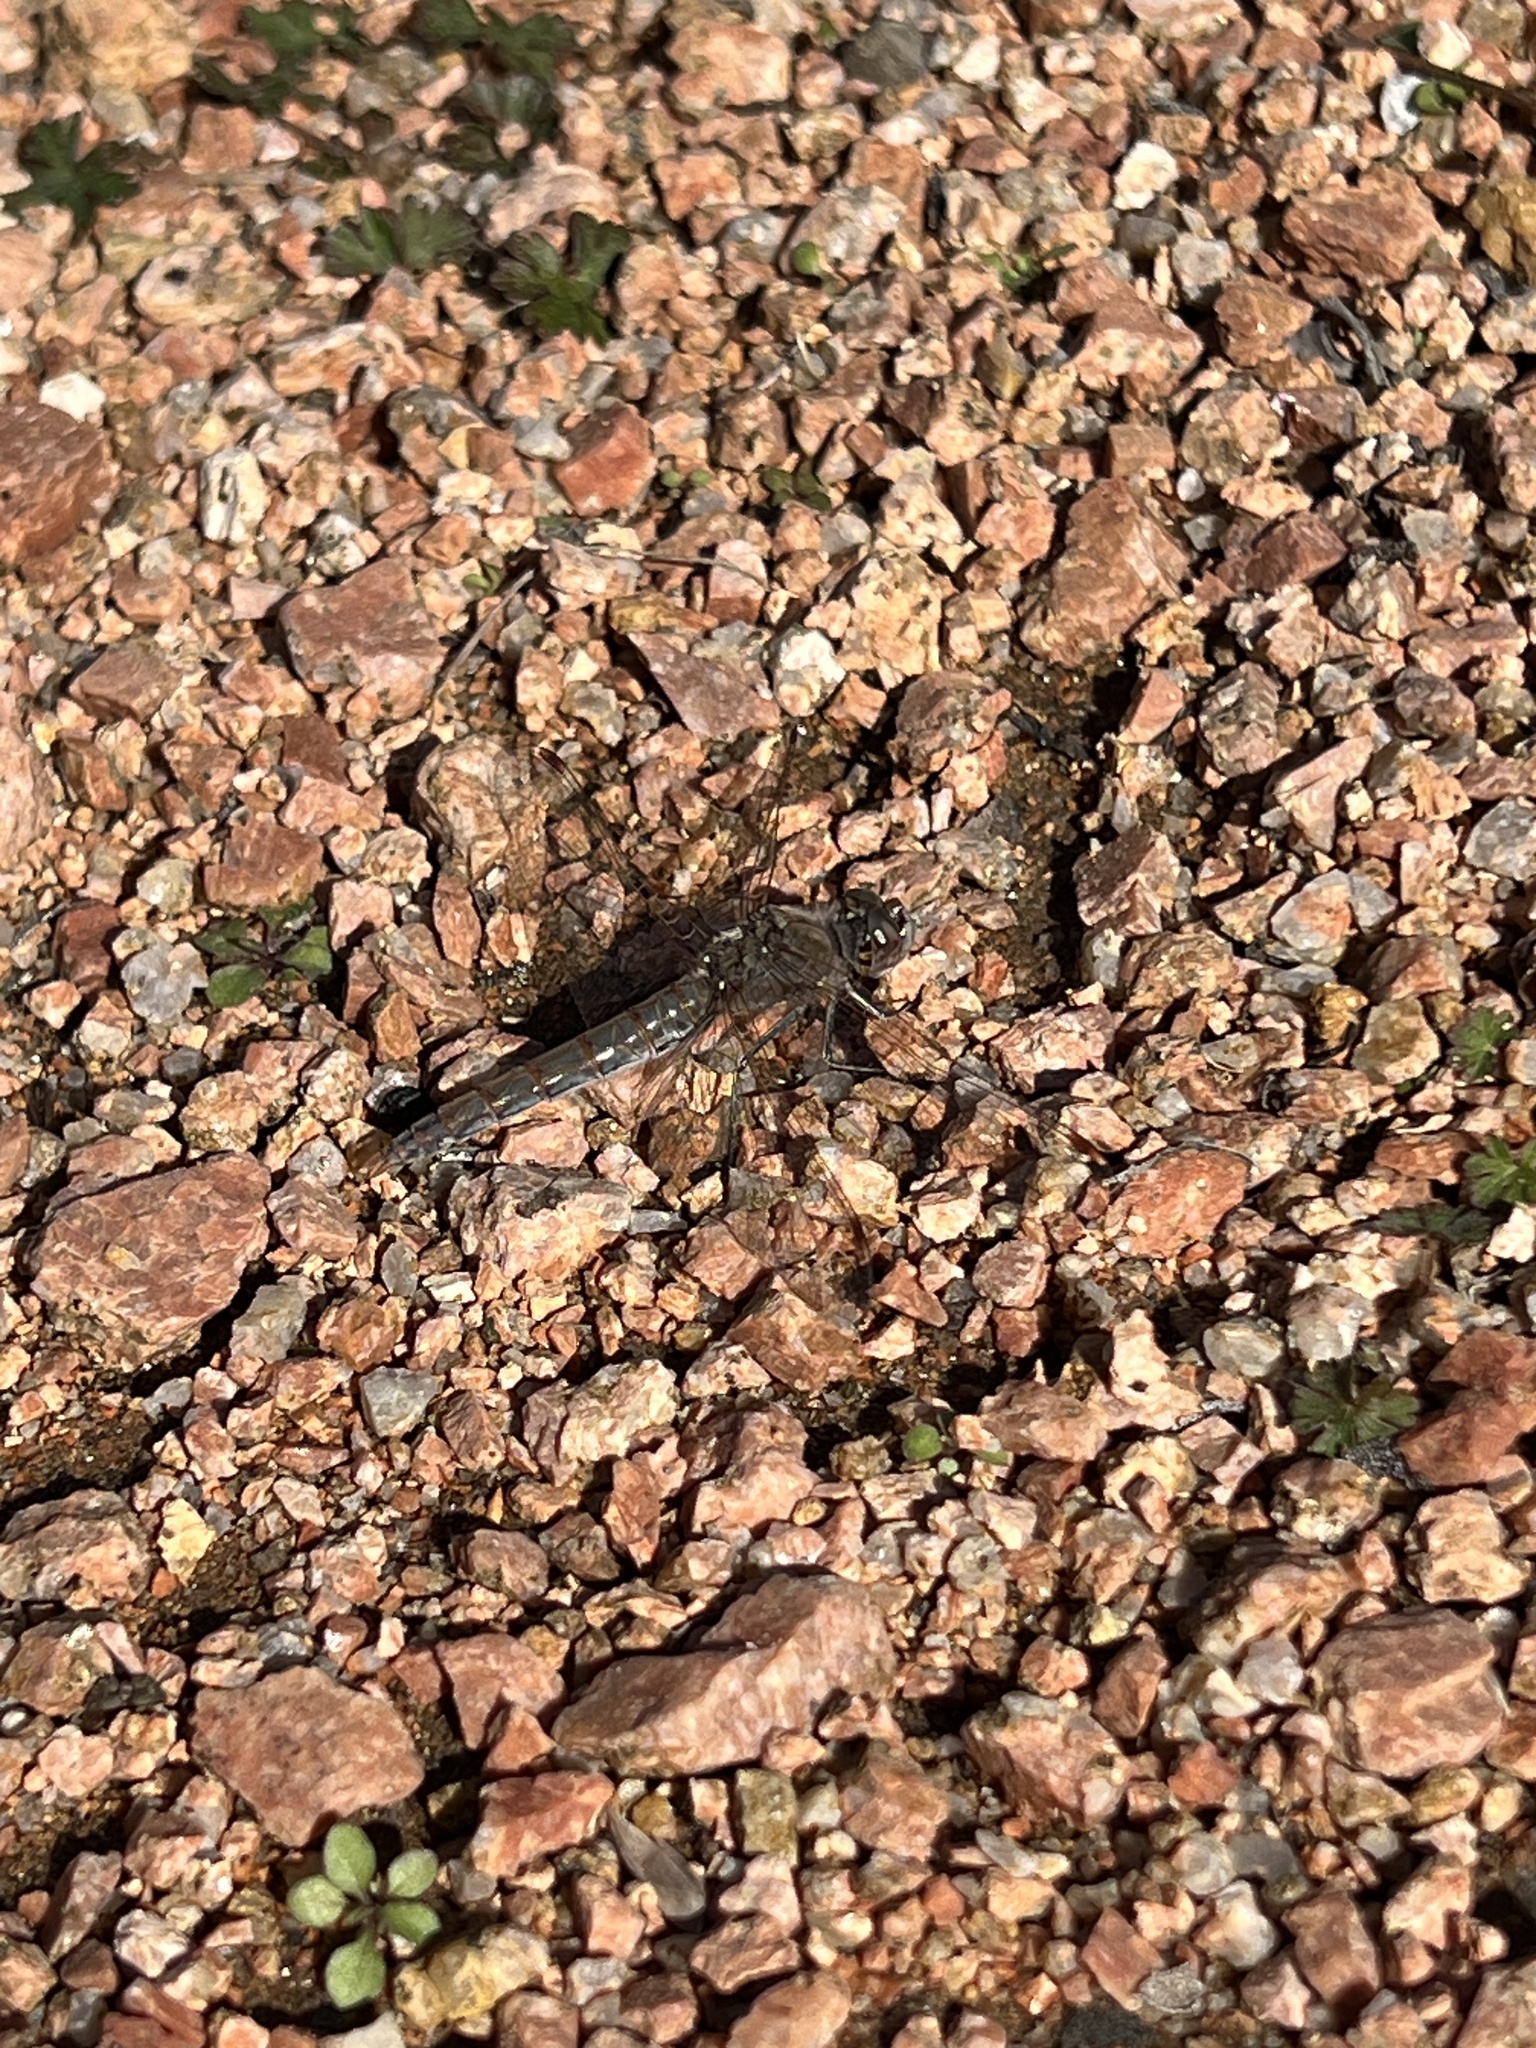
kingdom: Animalia
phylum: Arthropoda
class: Insecta
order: Odonata
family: Libellulidae
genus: Sympetrum
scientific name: Sympetrum corruptum
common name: Variegated meadowhawk
